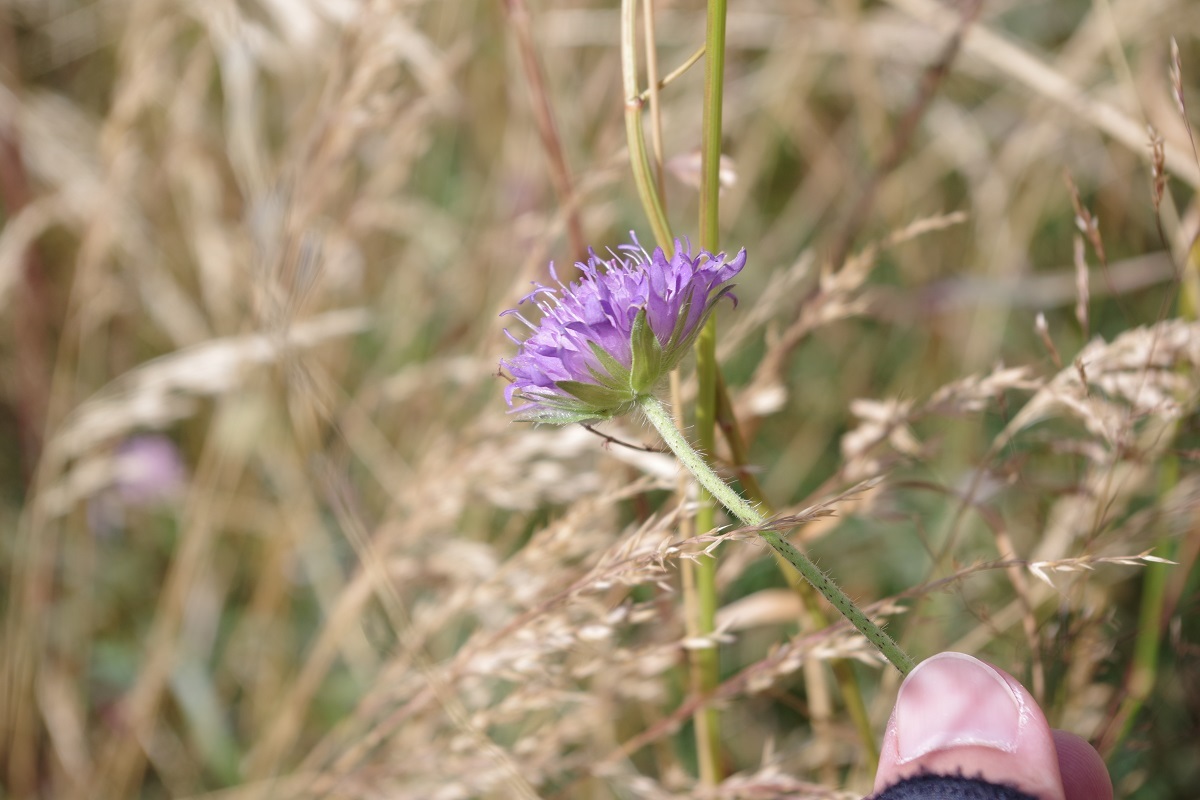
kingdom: Plantae
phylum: Tracheophyta
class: Magnoliopsida
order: Dipsacales
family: Caprifoliaceae
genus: Knautia
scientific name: Knautia arvensis
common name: Field scabiosa
